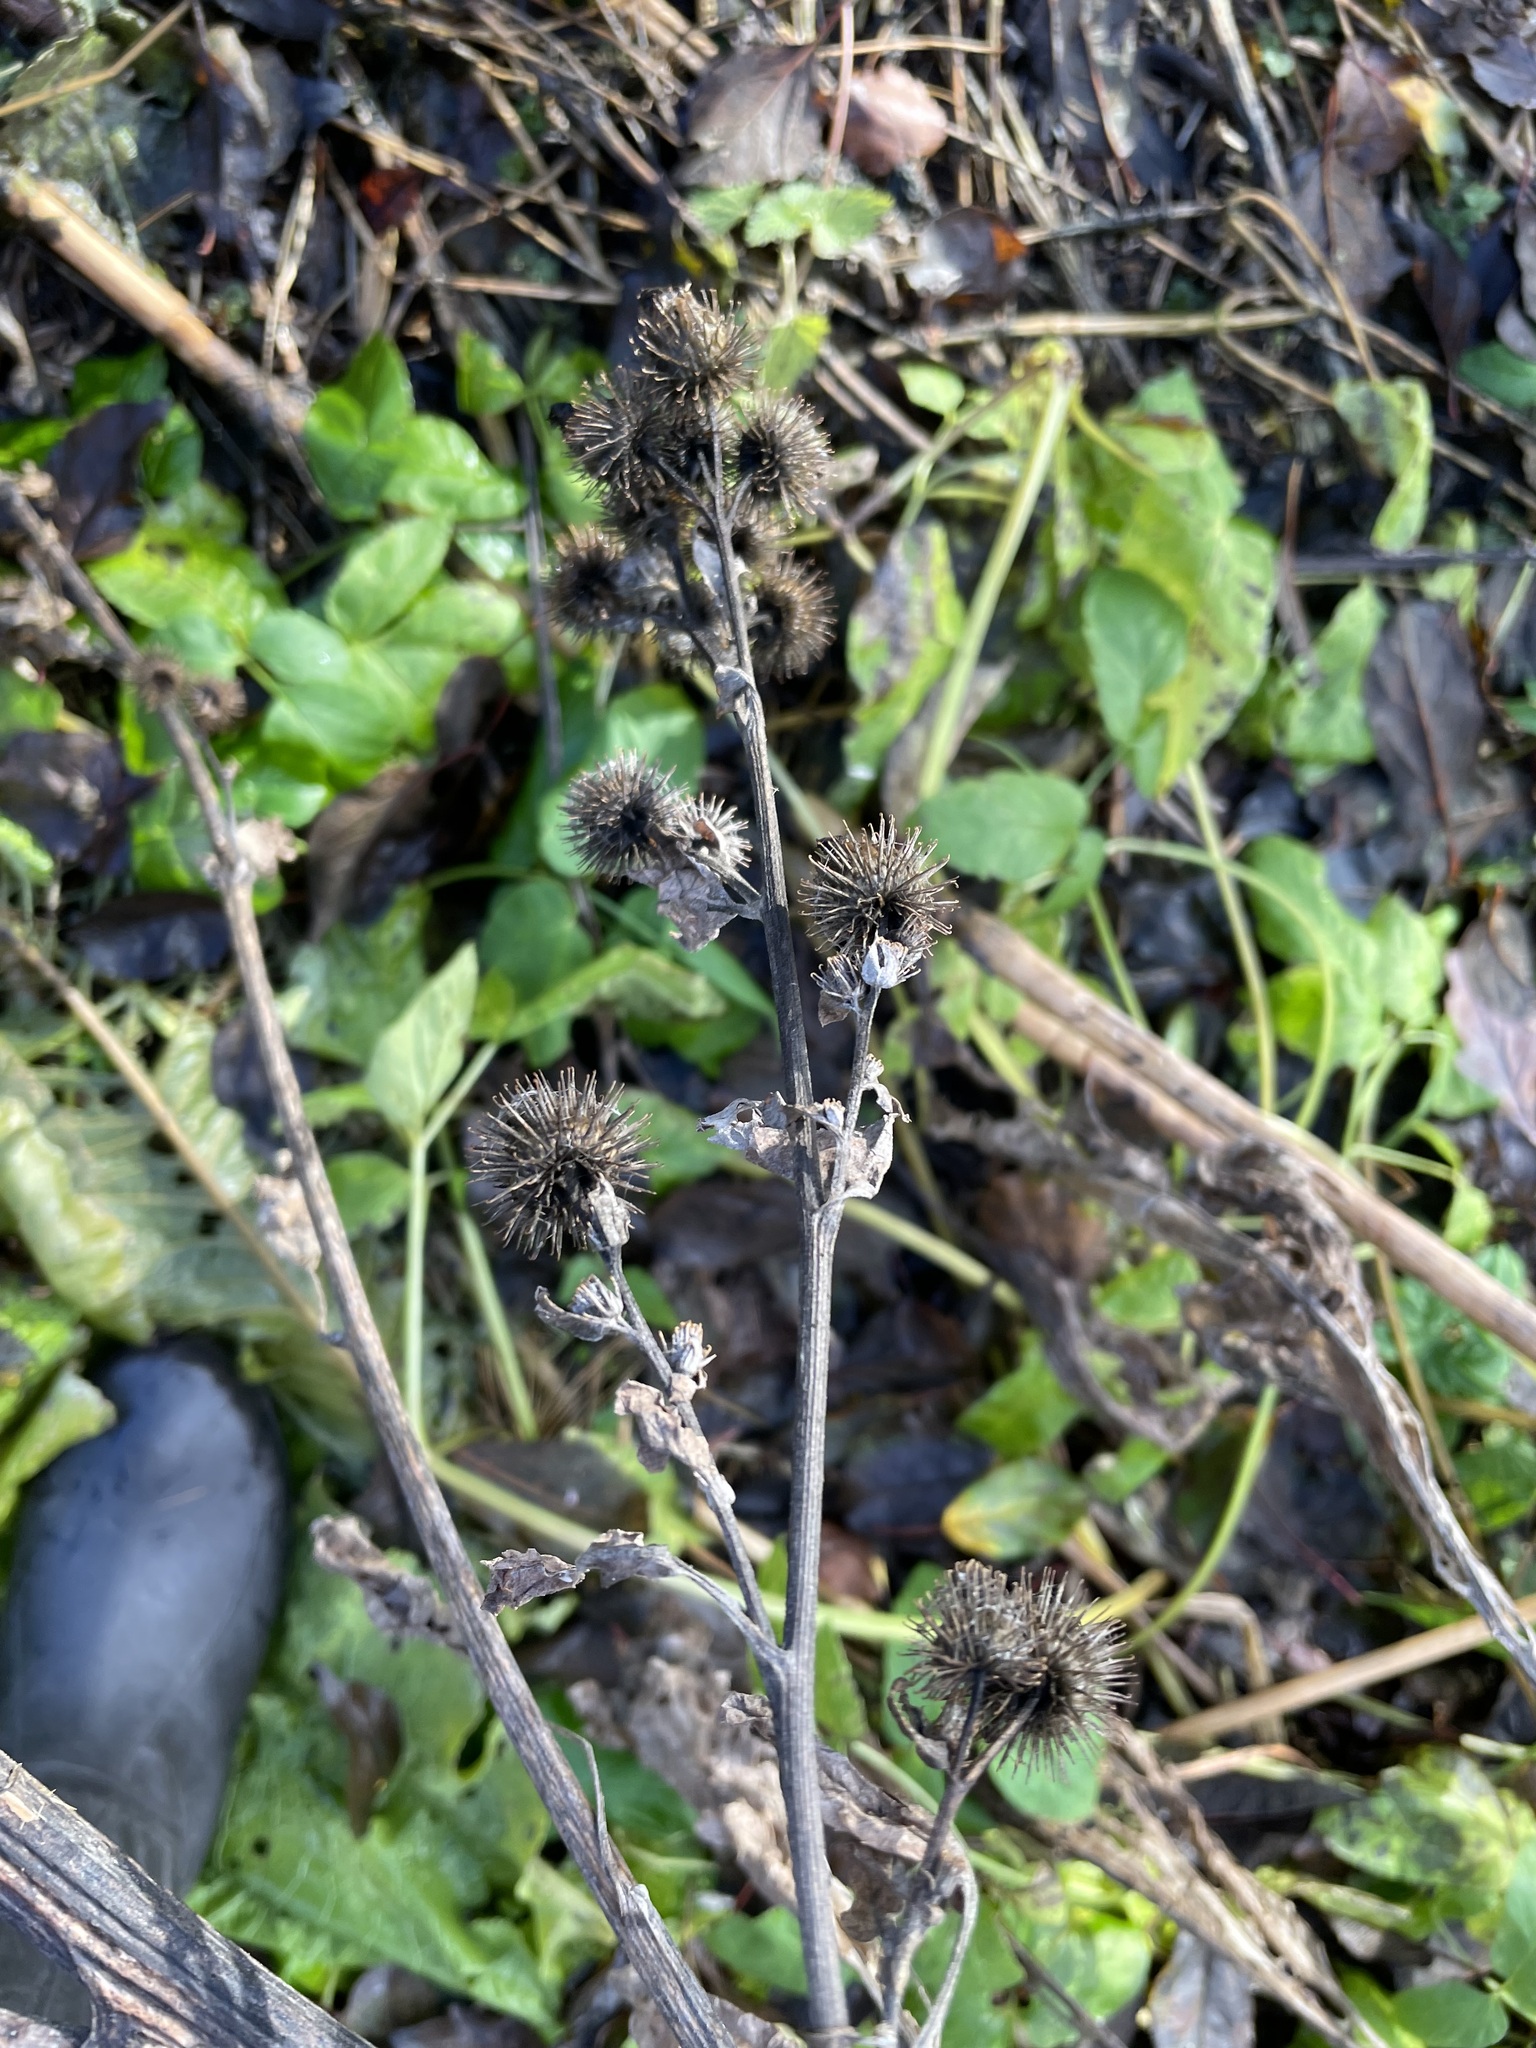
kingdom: Plantae
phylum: Tracheophyta
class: Magnoliopsida
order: Asterales
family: Asteraceae
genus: Arctium
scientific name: Arctium minus
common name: Lesser burdock
